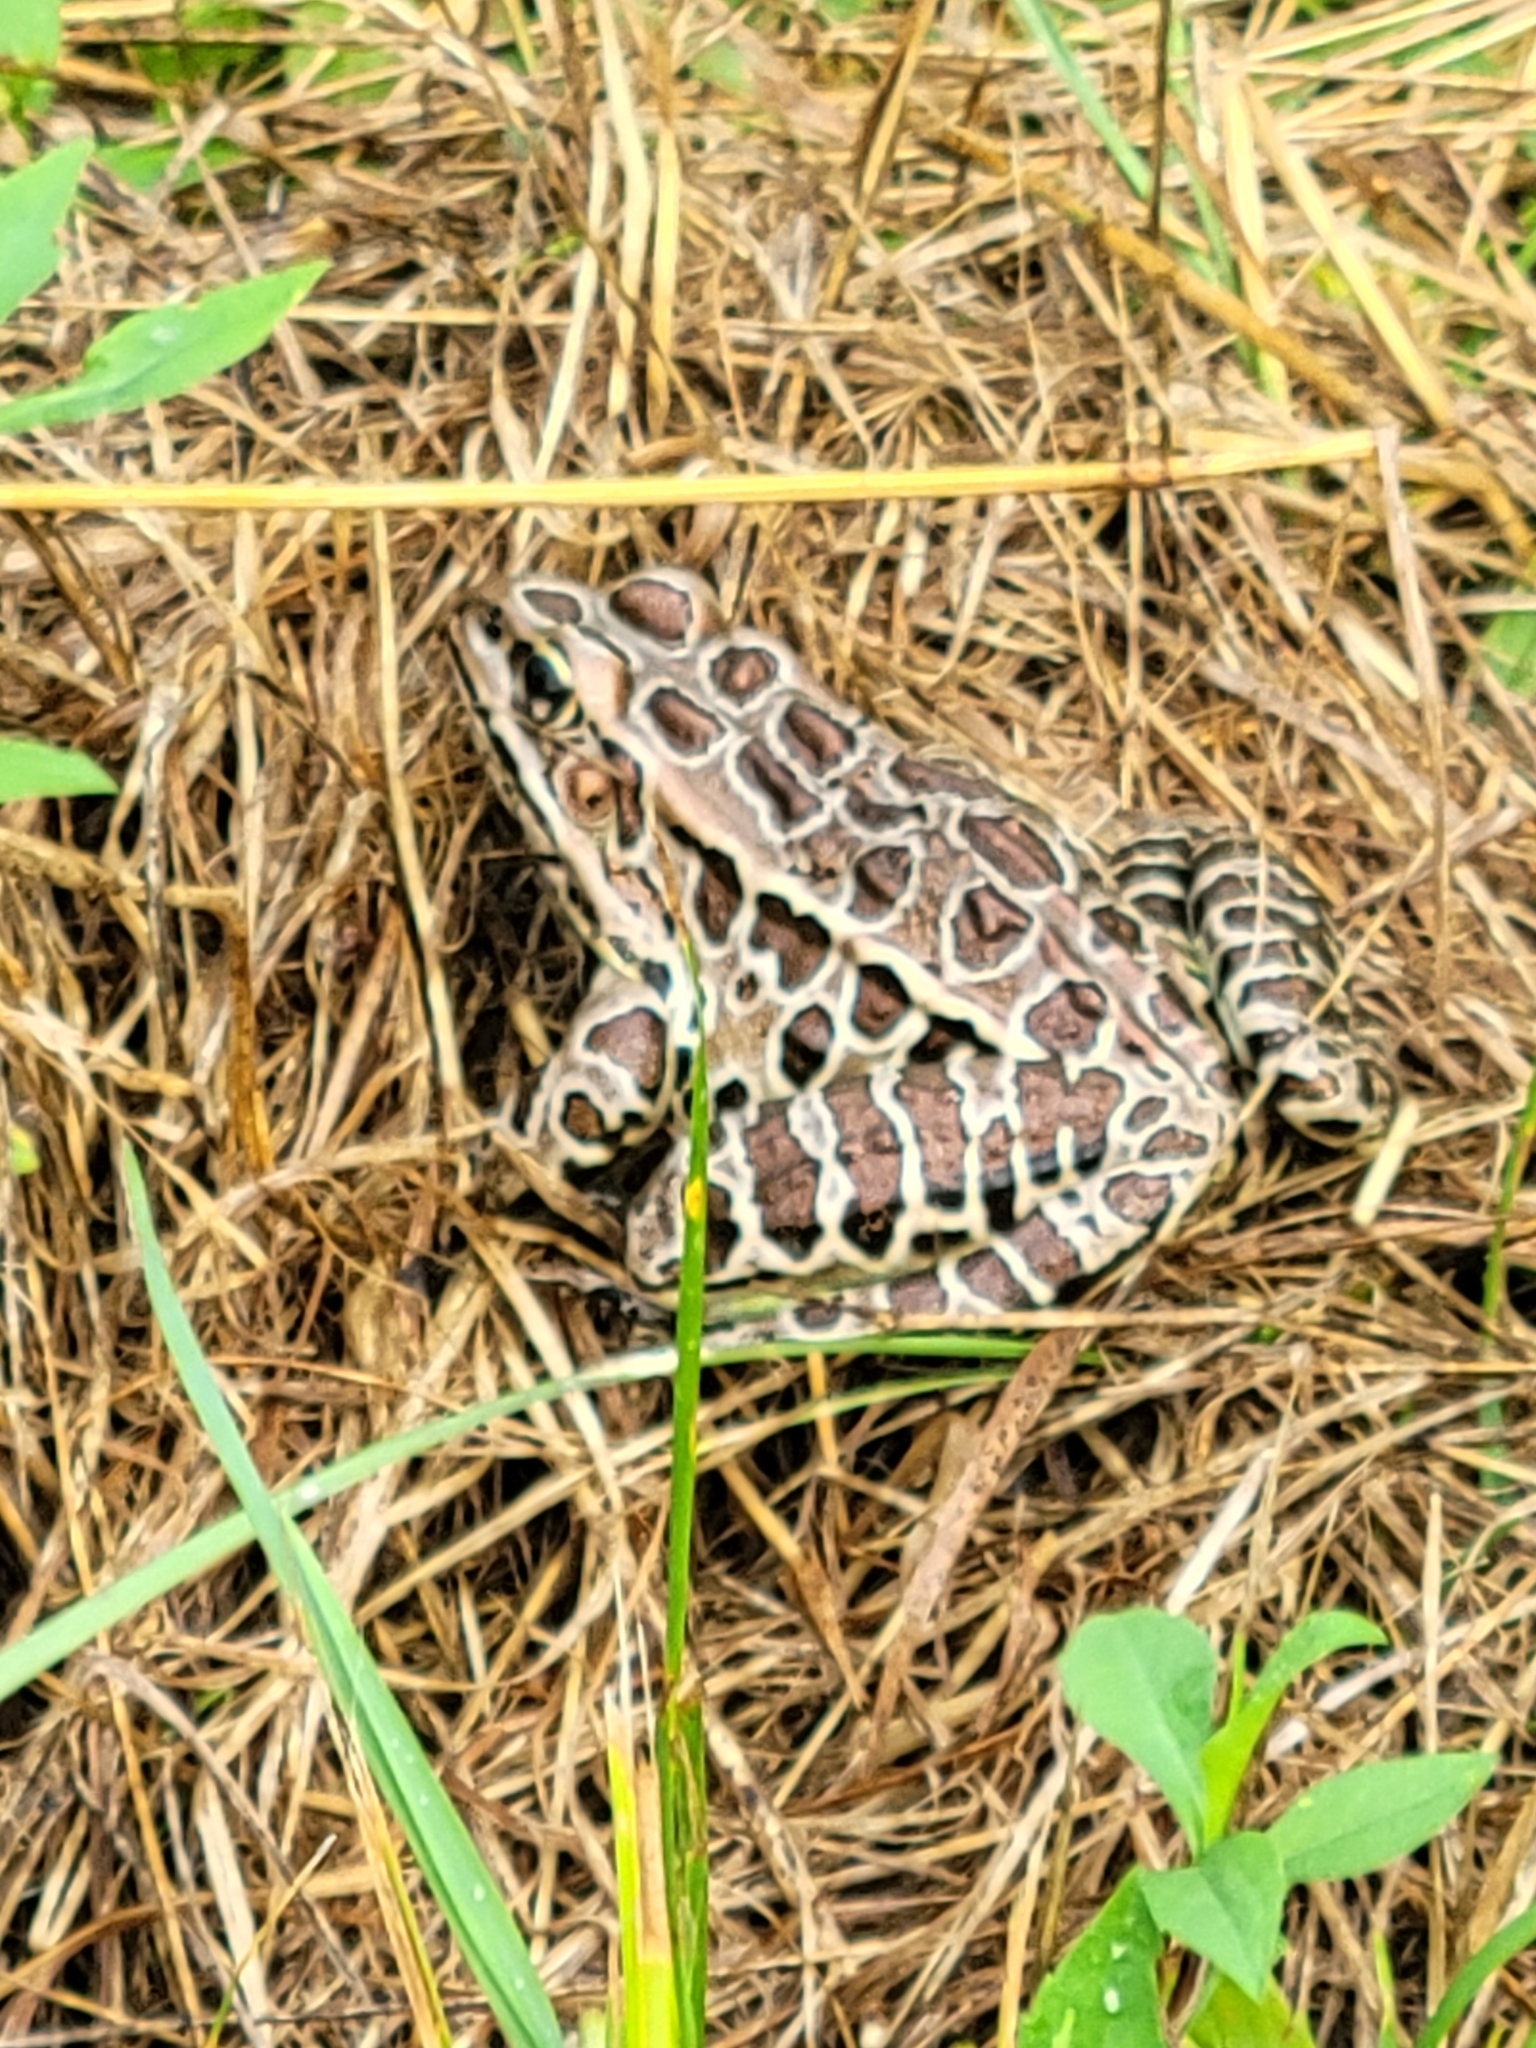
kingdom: Animalia
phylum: Chordata
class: Amphibia
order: Anura
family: Ranidae
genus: Lithobates
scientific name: Lithobates pipiens
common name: Northern leopard frog
